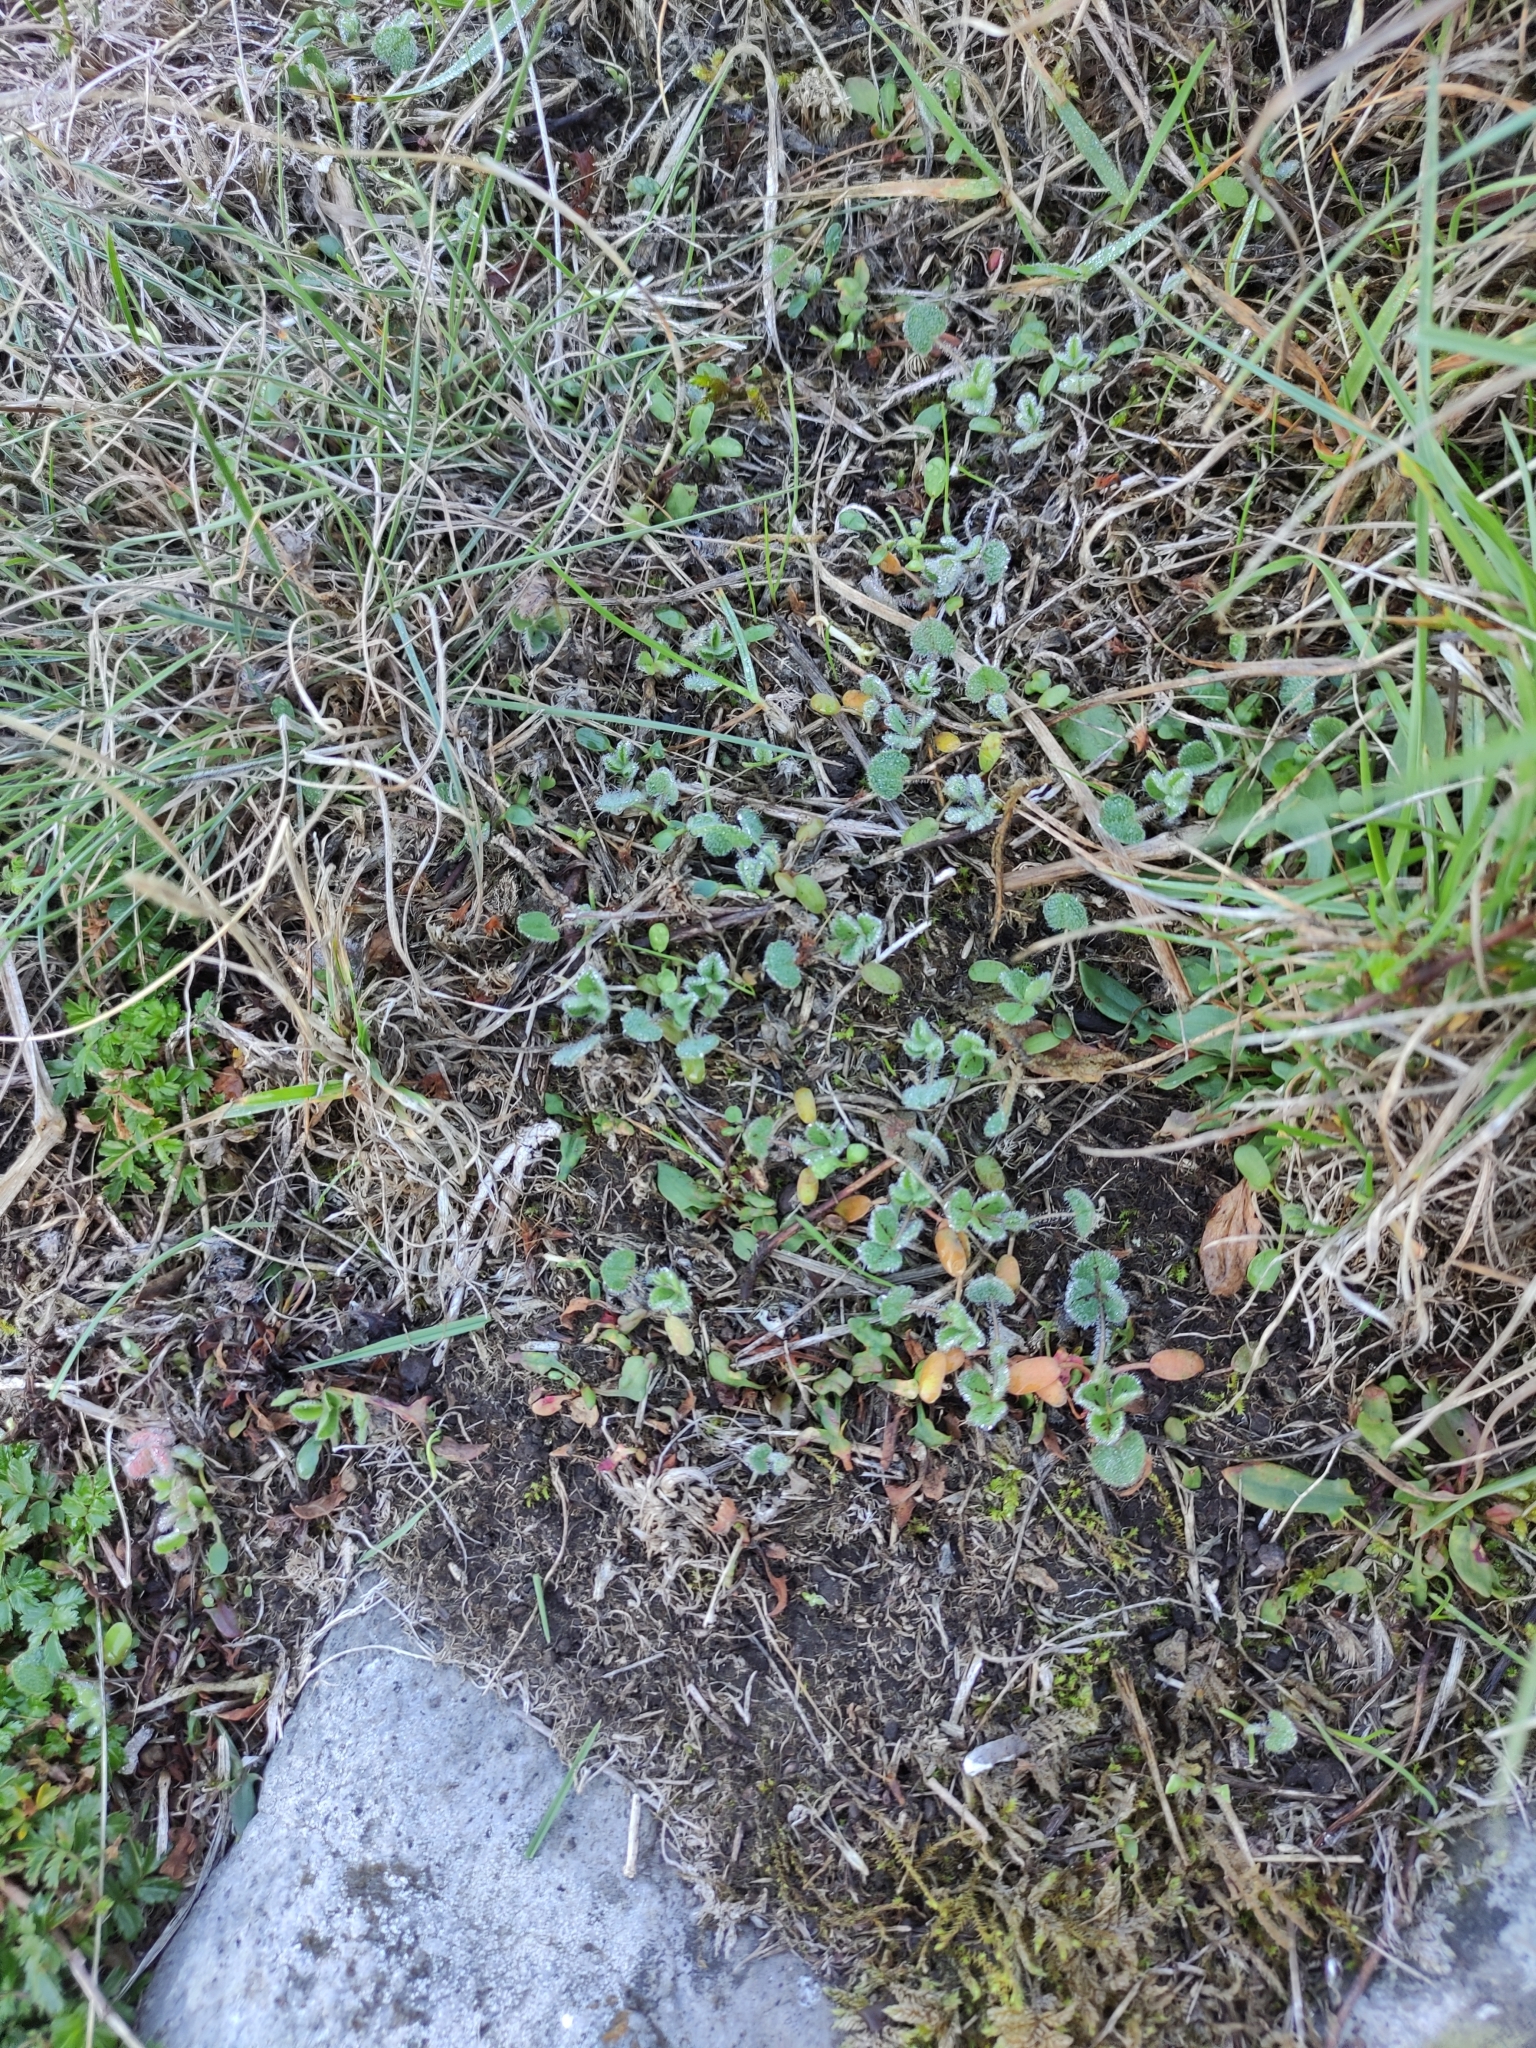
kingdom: Plantae
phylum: Tracheophyta
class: Magnoliopsida
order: Fabales
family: Fabaceae
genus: Trifolium
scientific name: Trifolium subterraneum
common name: Subterranean clover
